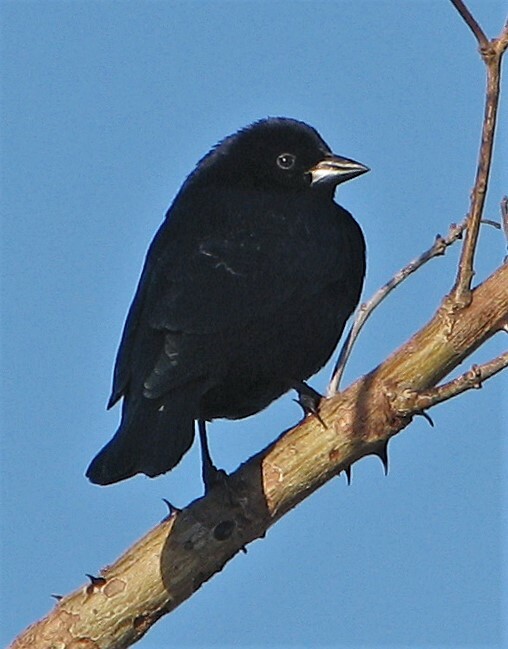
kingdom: Animalia
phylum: Chordata
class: Aves
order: Passeriformes
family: Icteridae
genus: Molothrus
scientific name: Molothrus bonariensis
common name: Shiny cowbird
